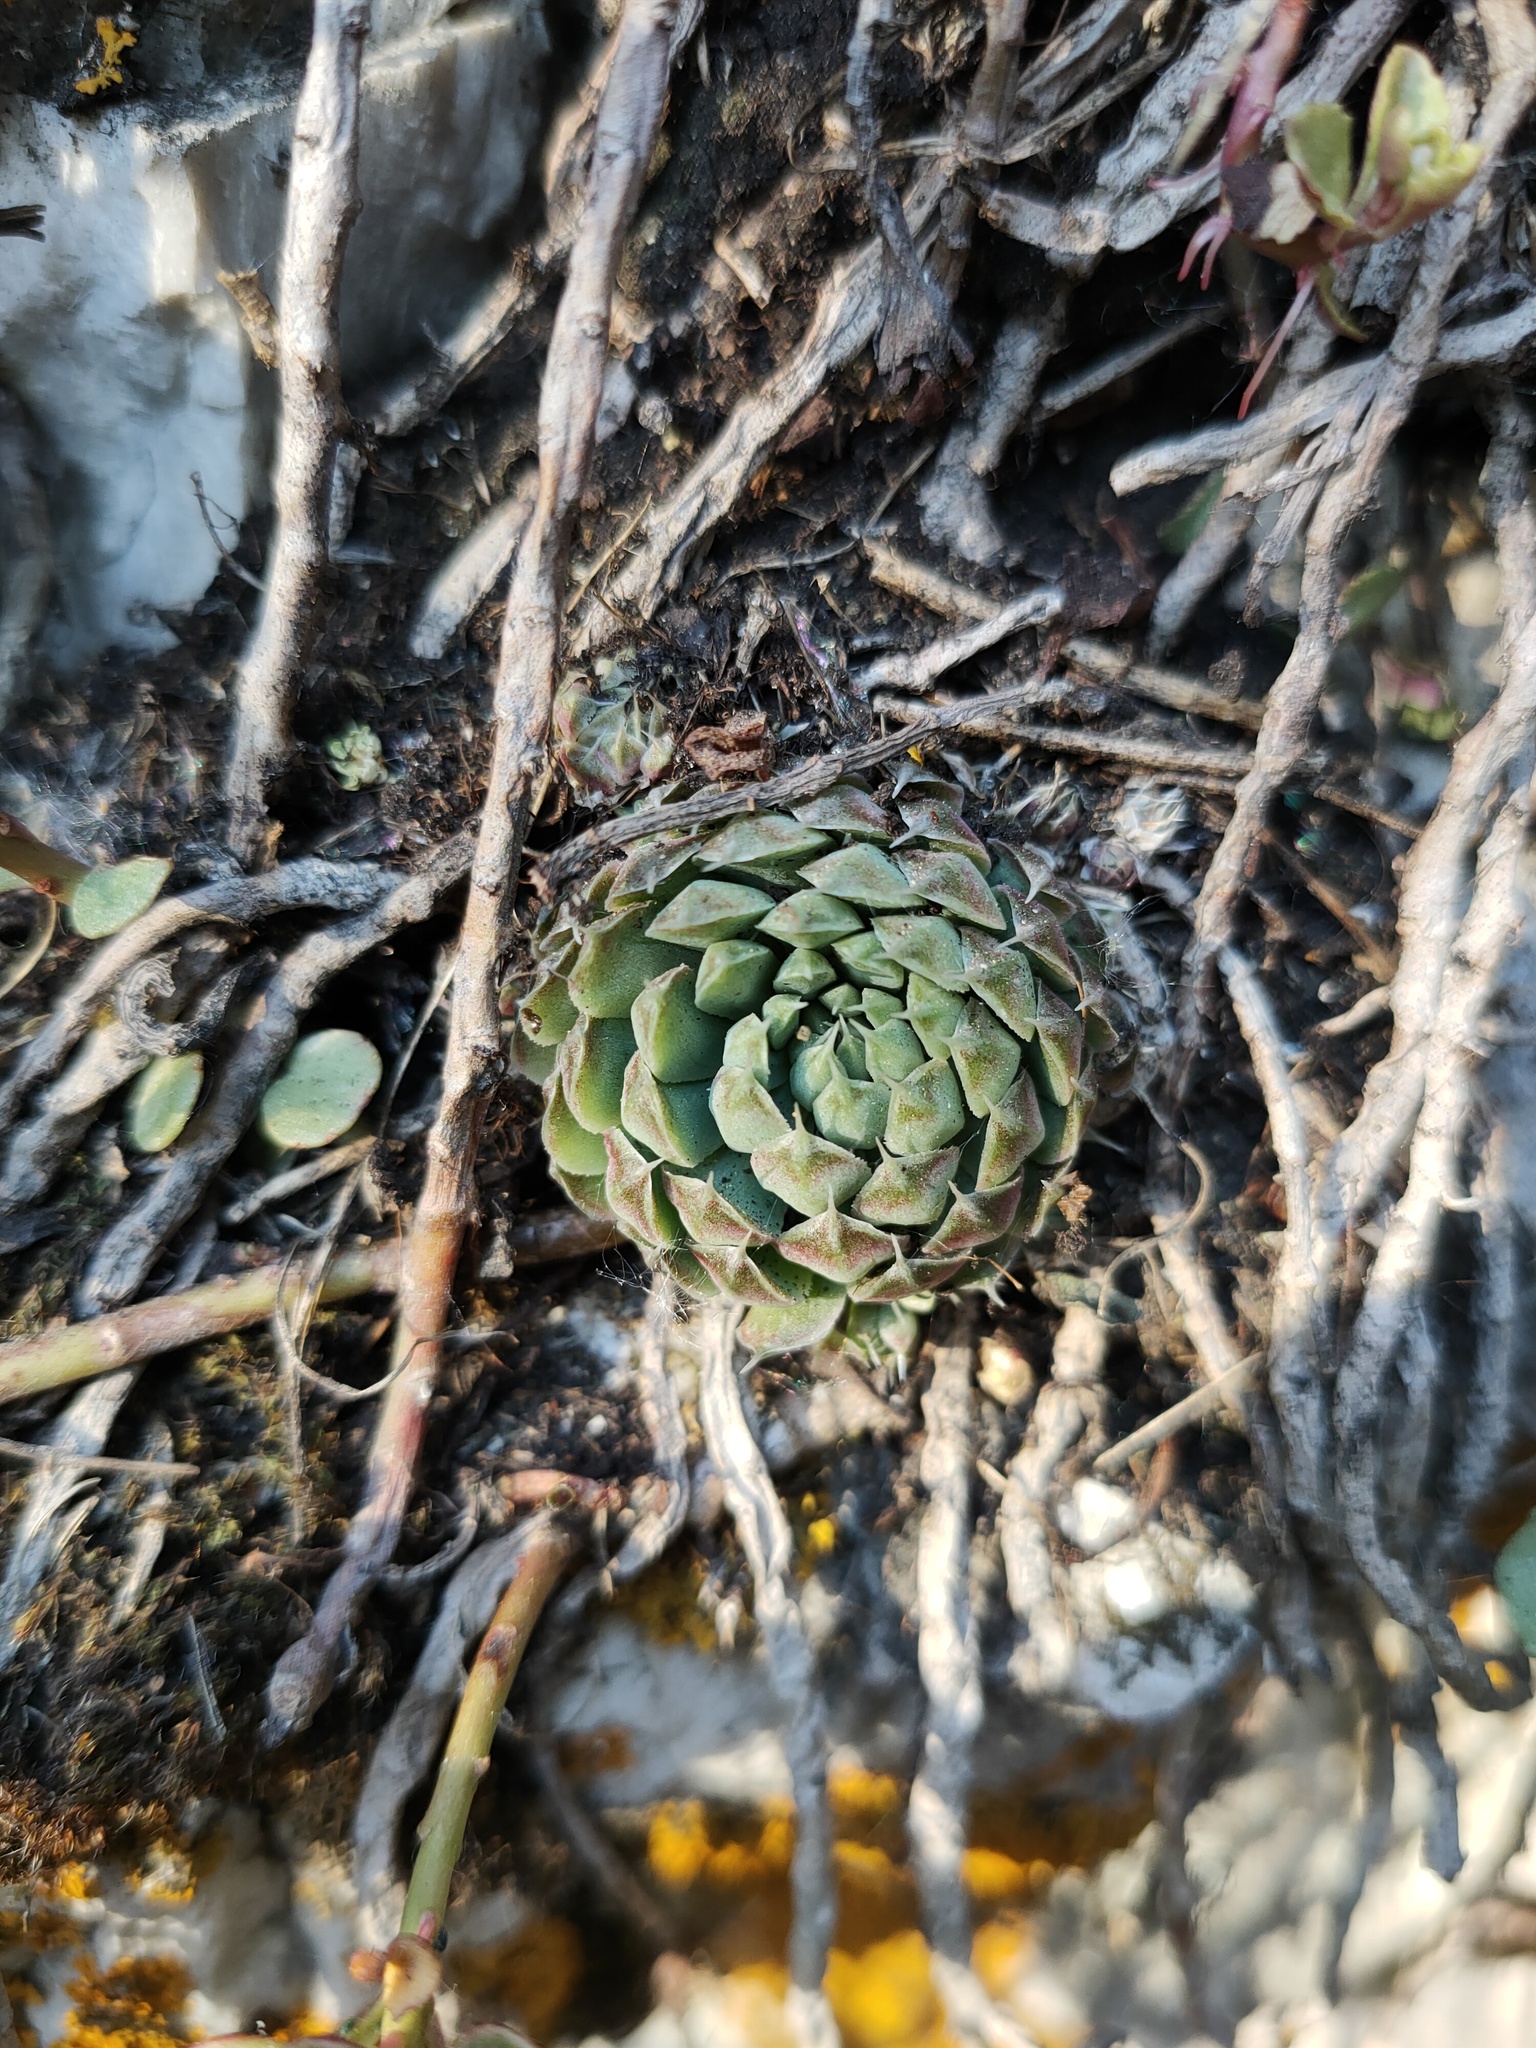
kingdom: Plantae
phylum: Tracheophyta
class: Magnoliopsida
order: Saxifragales
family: Crassulaceae
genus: Orostachys
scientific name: Orostachys spinosa
